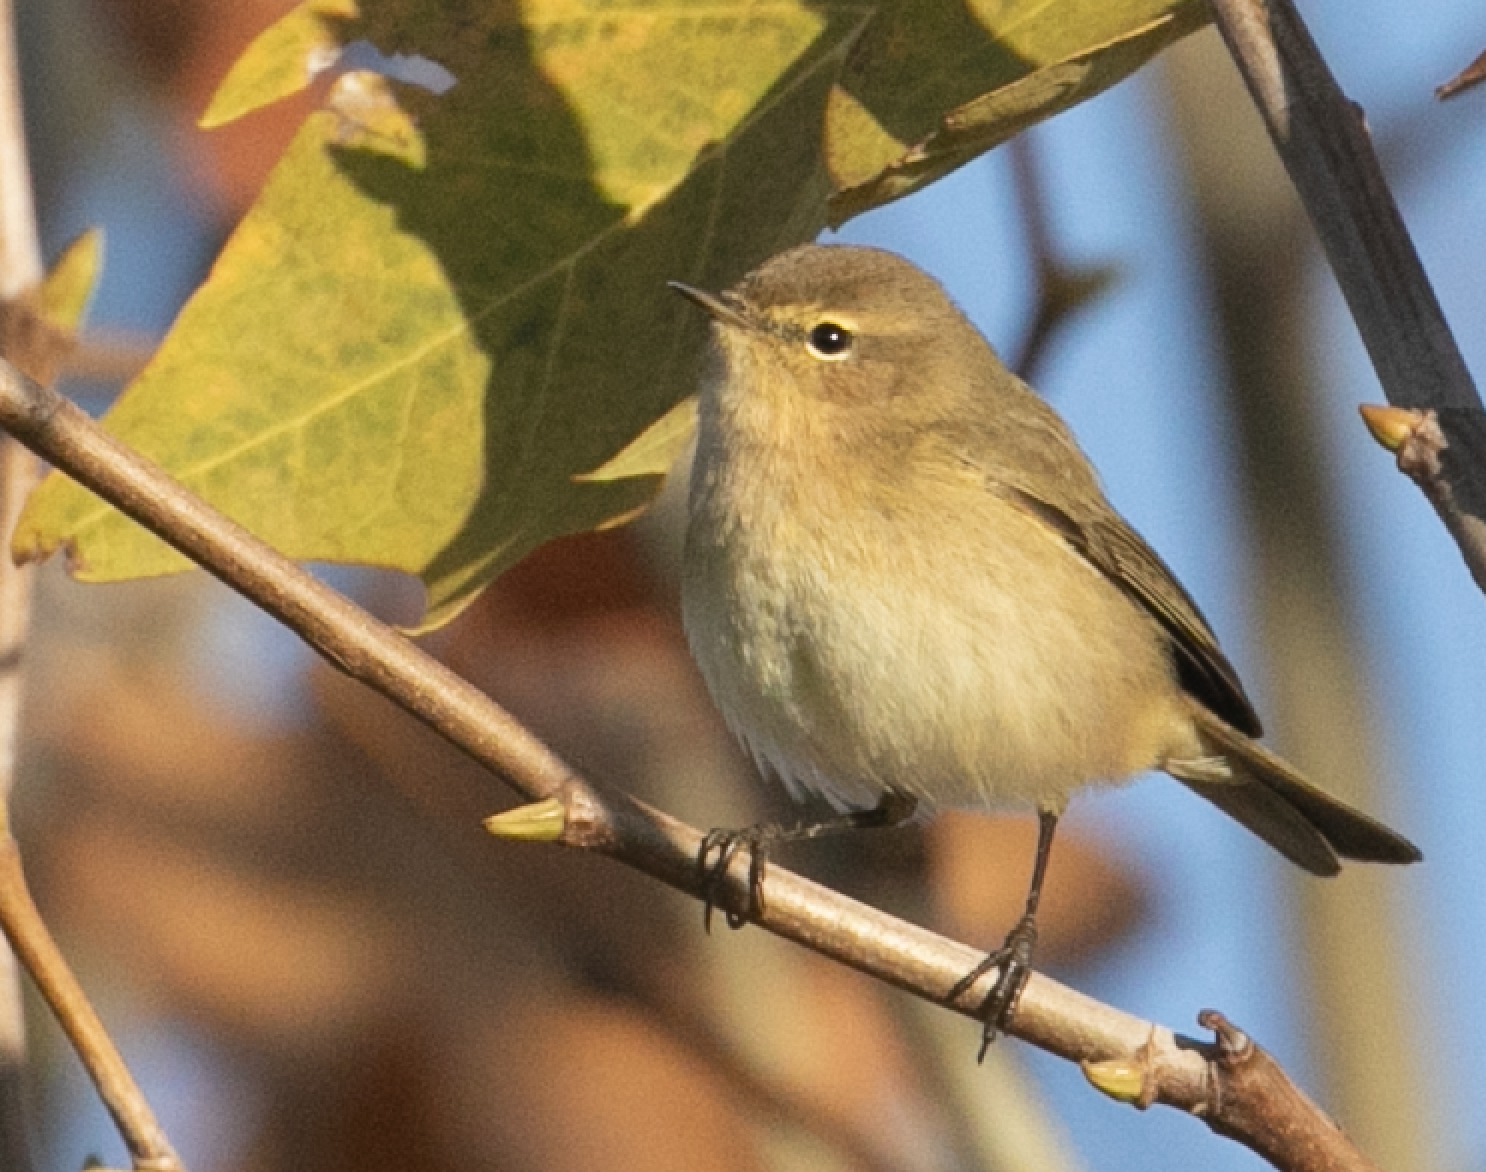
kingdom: Animalia
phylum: Chordata
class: Aves
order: Passeriformes
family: Phylloscopidae
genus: Phylloscopus
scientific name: Phylloscopus collybita
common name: Common chiffchaff
